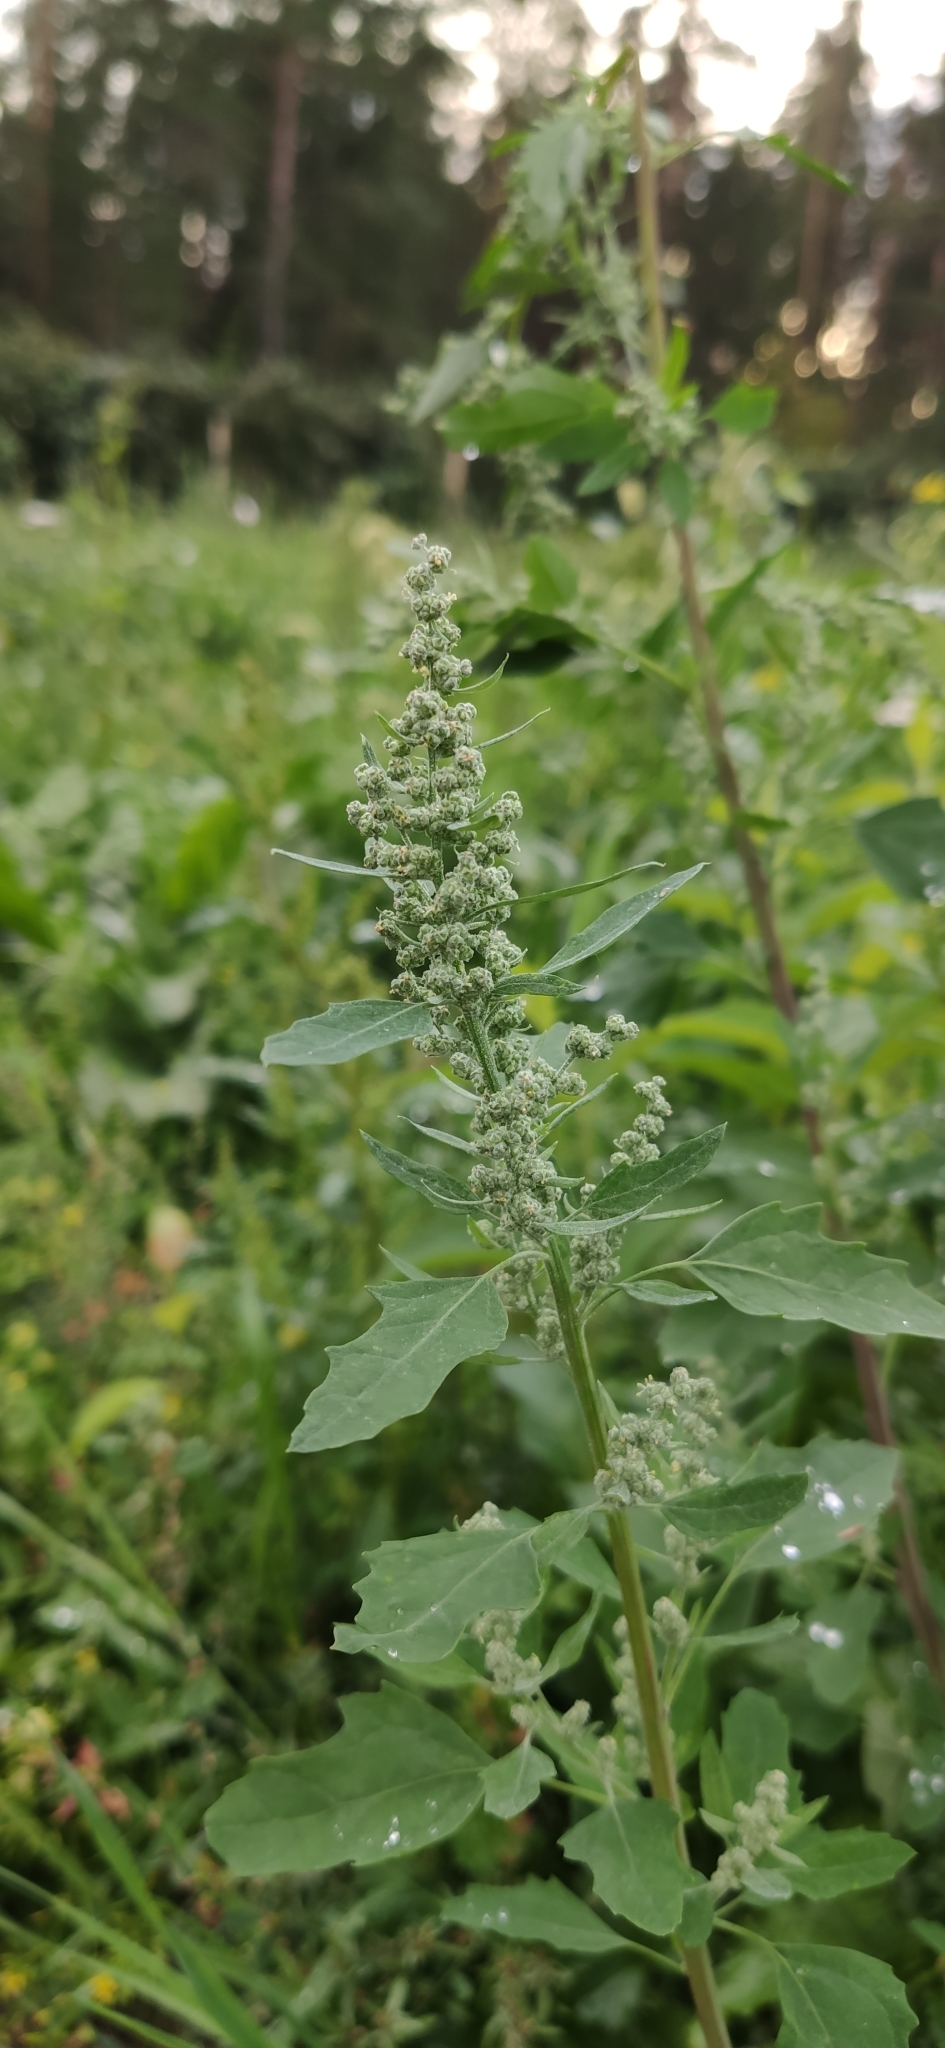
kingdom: Plantae
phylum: Tracheophyta
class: Magnoliopsida
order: Caryophyllales
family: Amaranthaceae
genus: Chenopodium
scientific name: Chenopodium album
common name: Fat-hen
